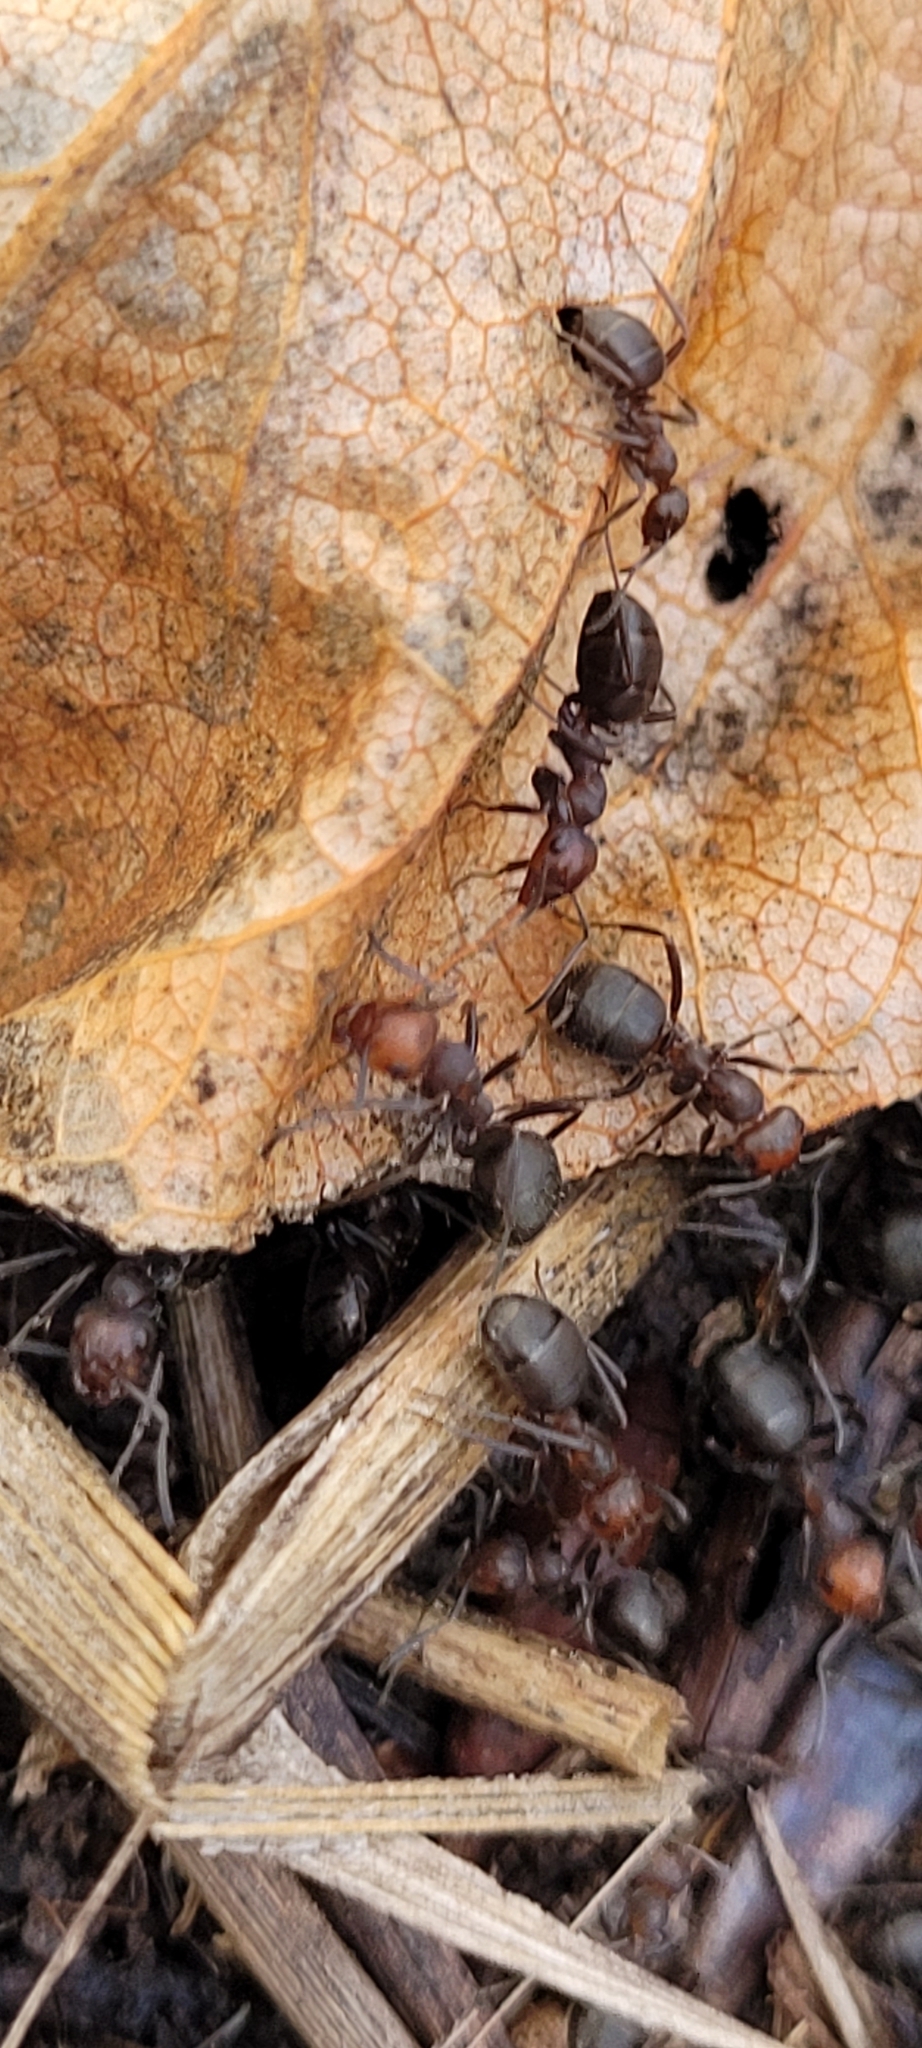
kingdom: Animalia
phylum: Arthropoda
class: Insecta
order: Hymenoptera
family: Formicidae
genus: Formica
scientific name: Formica obscuripes
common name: Western thatching ant
